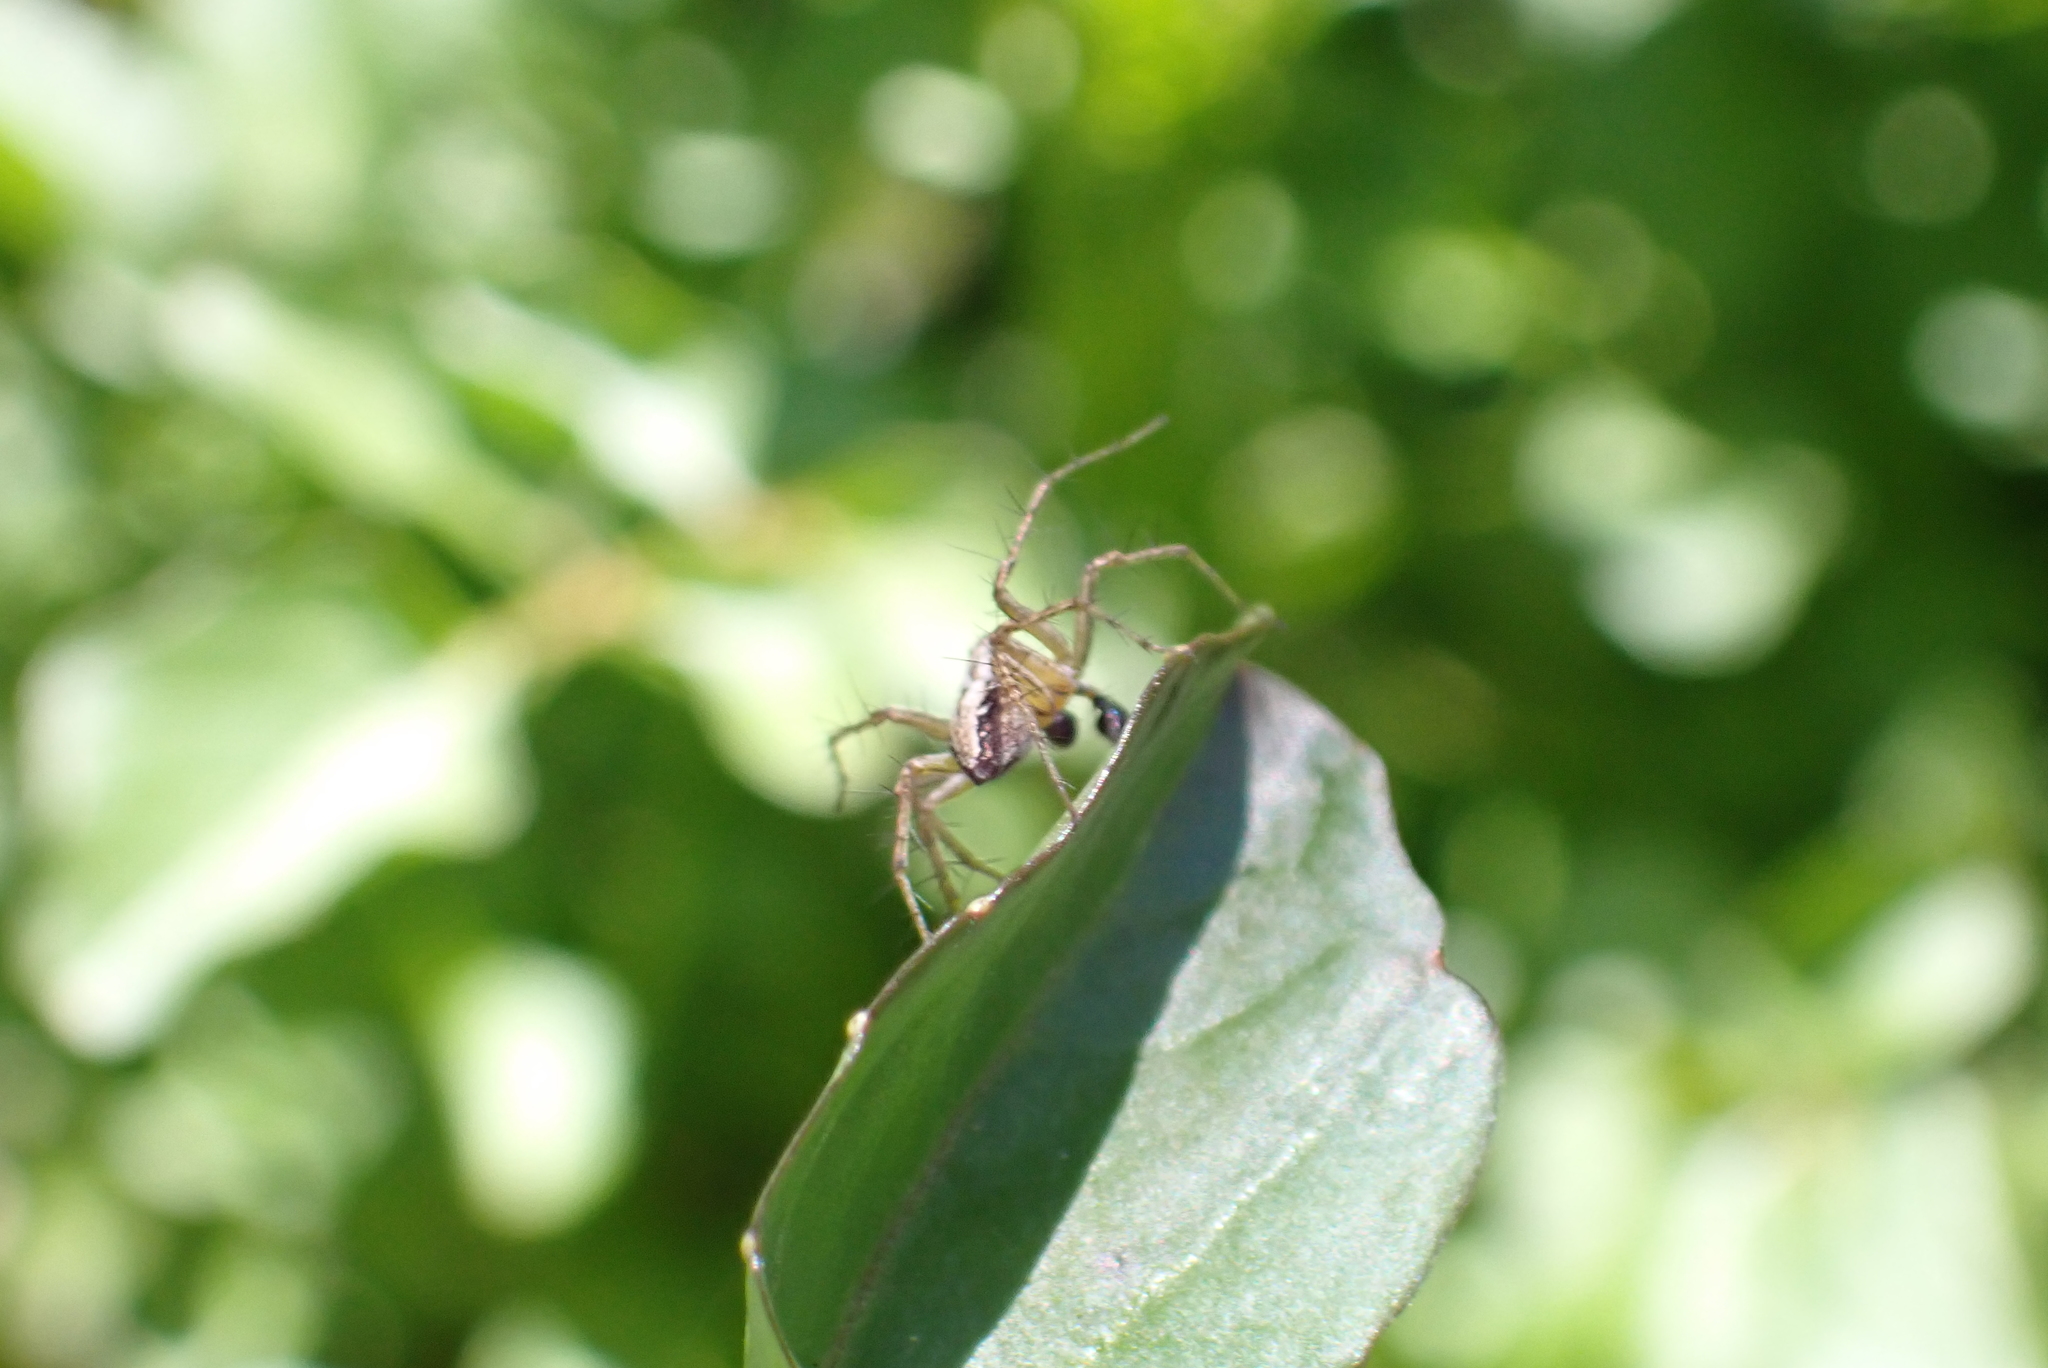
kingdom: Animalia
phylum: Arthropoda
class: Arachnida
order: Araneae
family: Oxyopidae
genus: Oxyopes
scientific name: Oxyopes gracilipes
